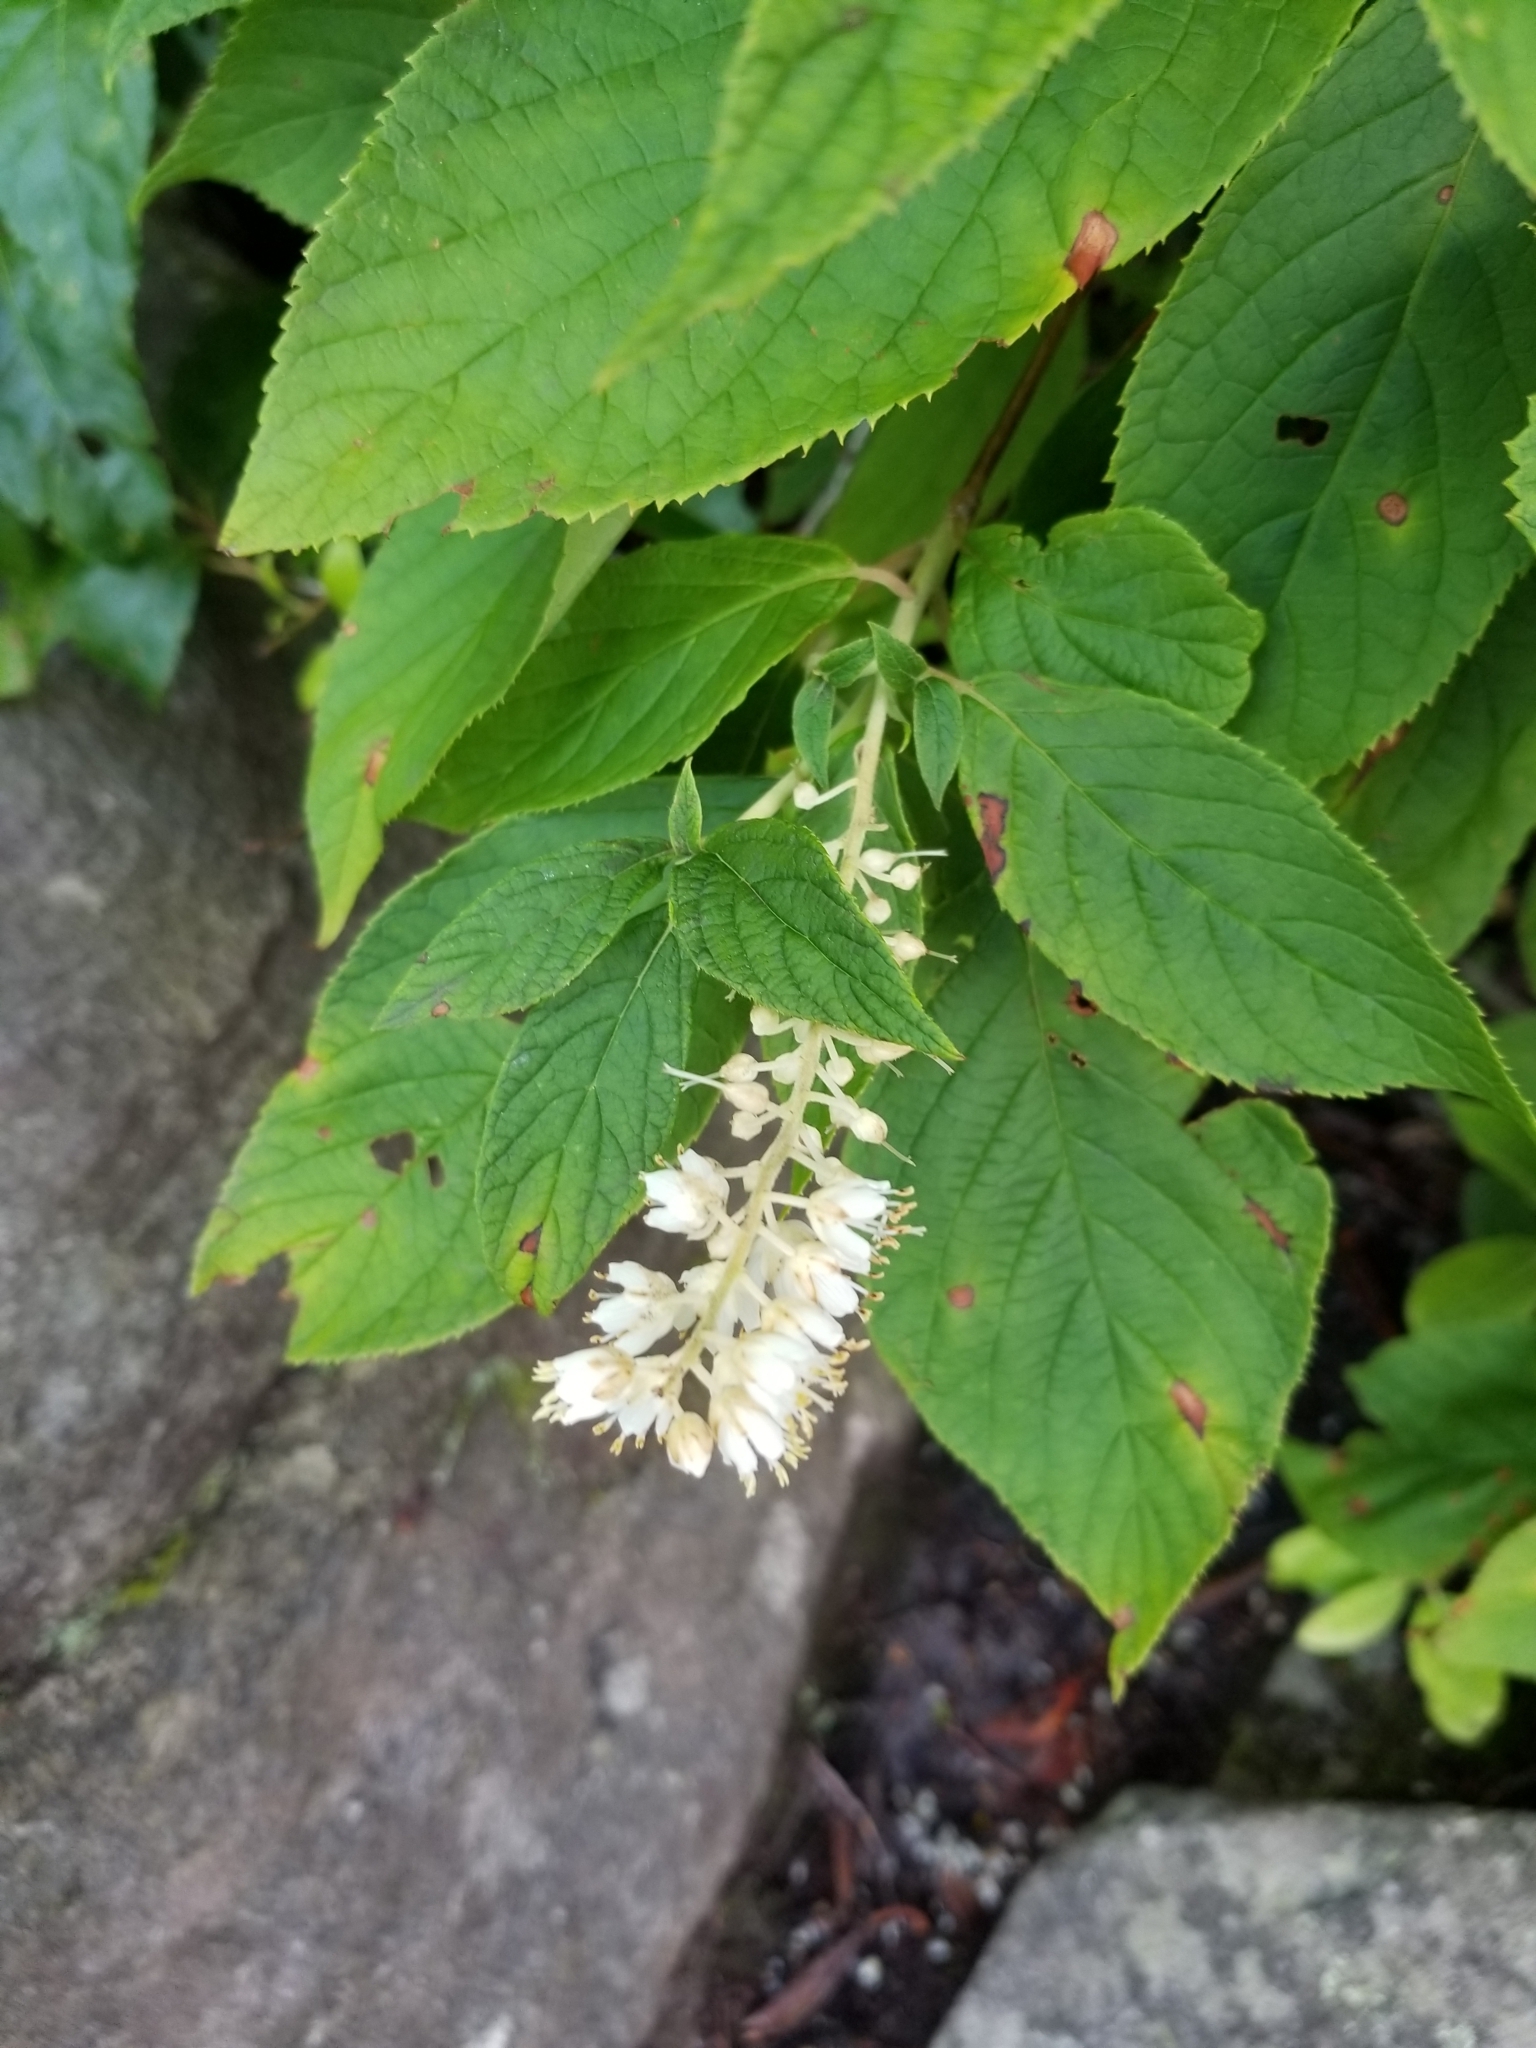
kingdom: Plantae
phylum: Tracheophyta
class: Magnoliopsida
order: Ericales
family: Clethraceae
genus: Clethra
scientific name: Clethra acuminata
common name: Mountain sweet pepperbush
